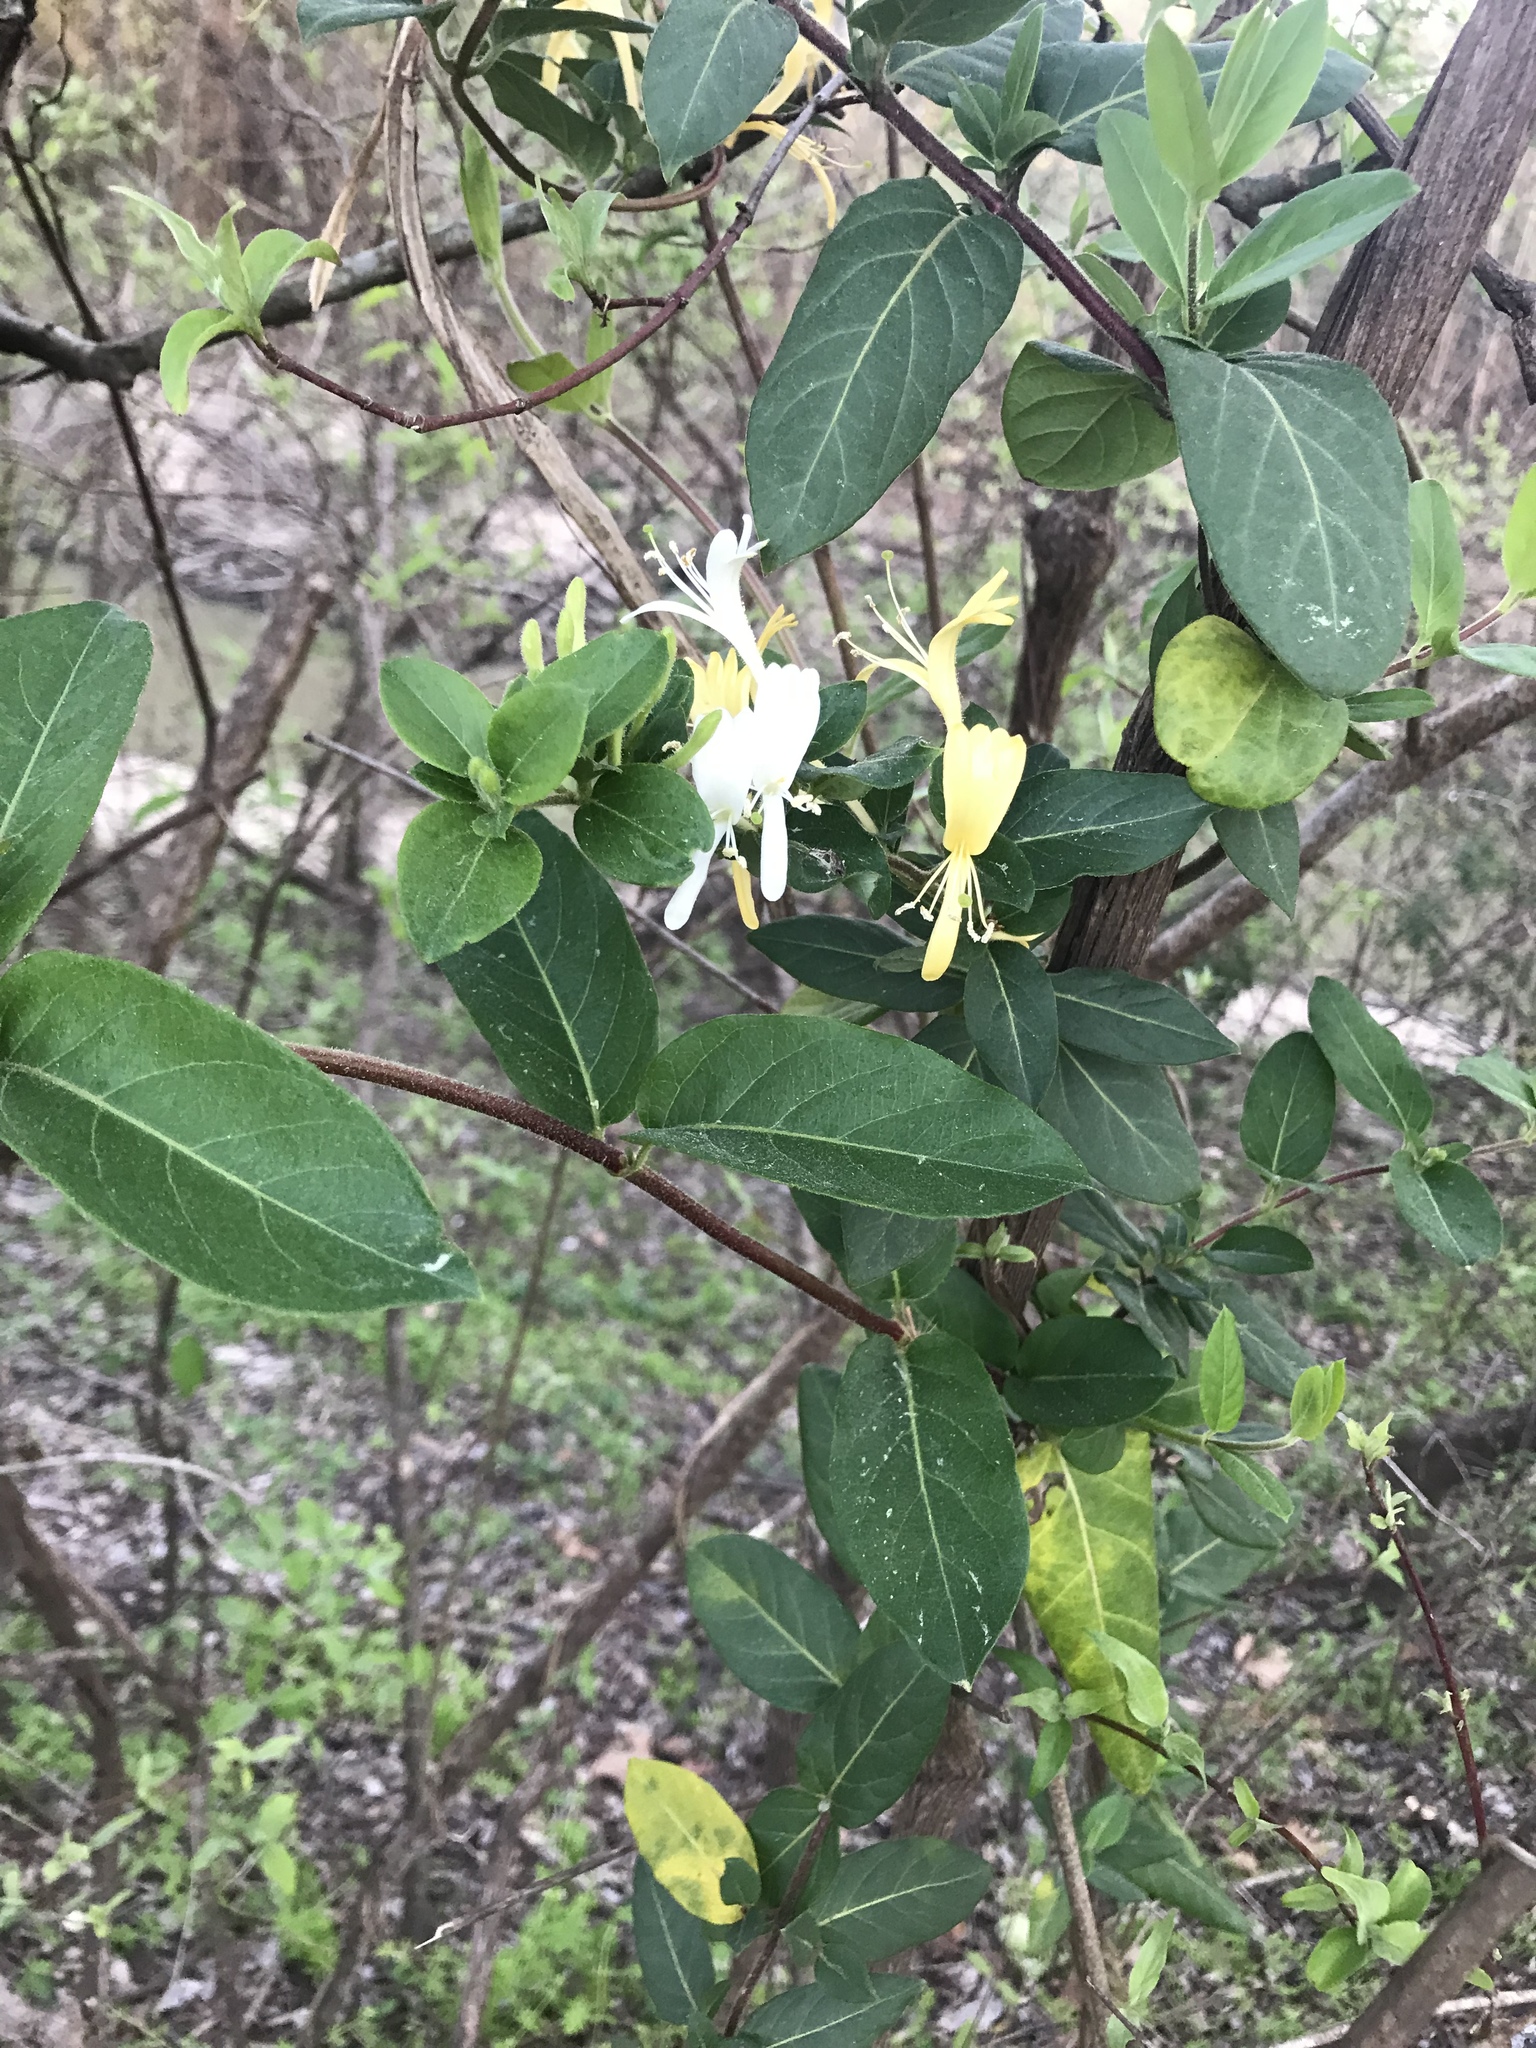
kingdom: Plantae
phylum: Tracheophyta
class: Magnoliopsida
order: Dipsacales
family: Caprifoliaceae
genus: Lonicera
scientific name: Lonicera japonica
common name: Japanese honeysuckle
